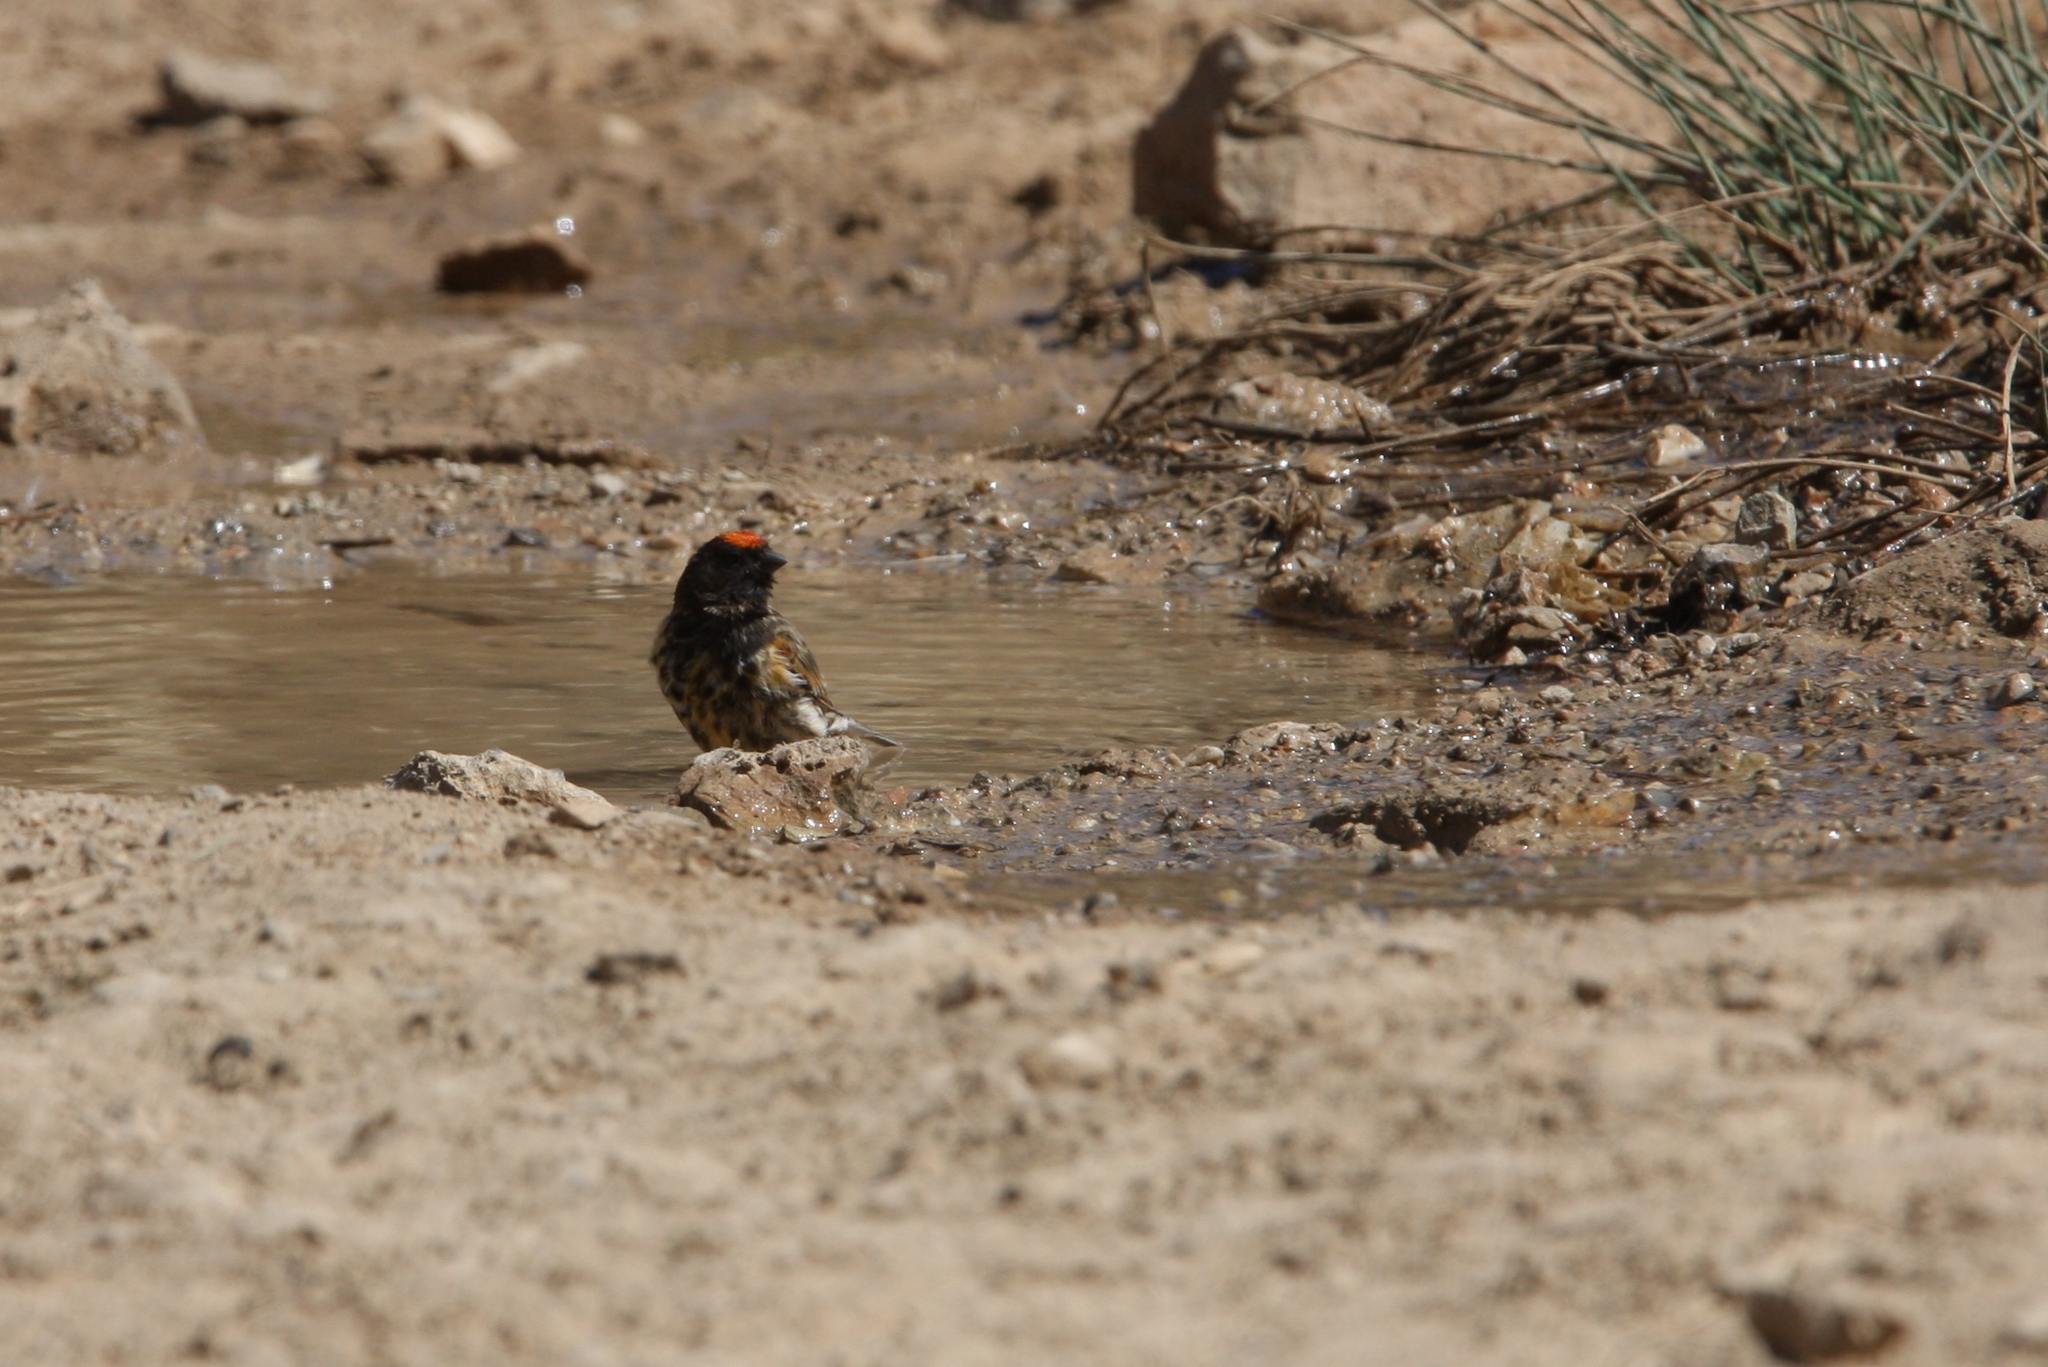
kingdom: Animalia
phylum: Chordata
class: Aves
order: Passeriformes
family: Fringillidae
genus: Serinus
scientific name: Serinus pusillus
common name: Red-fronted serin
